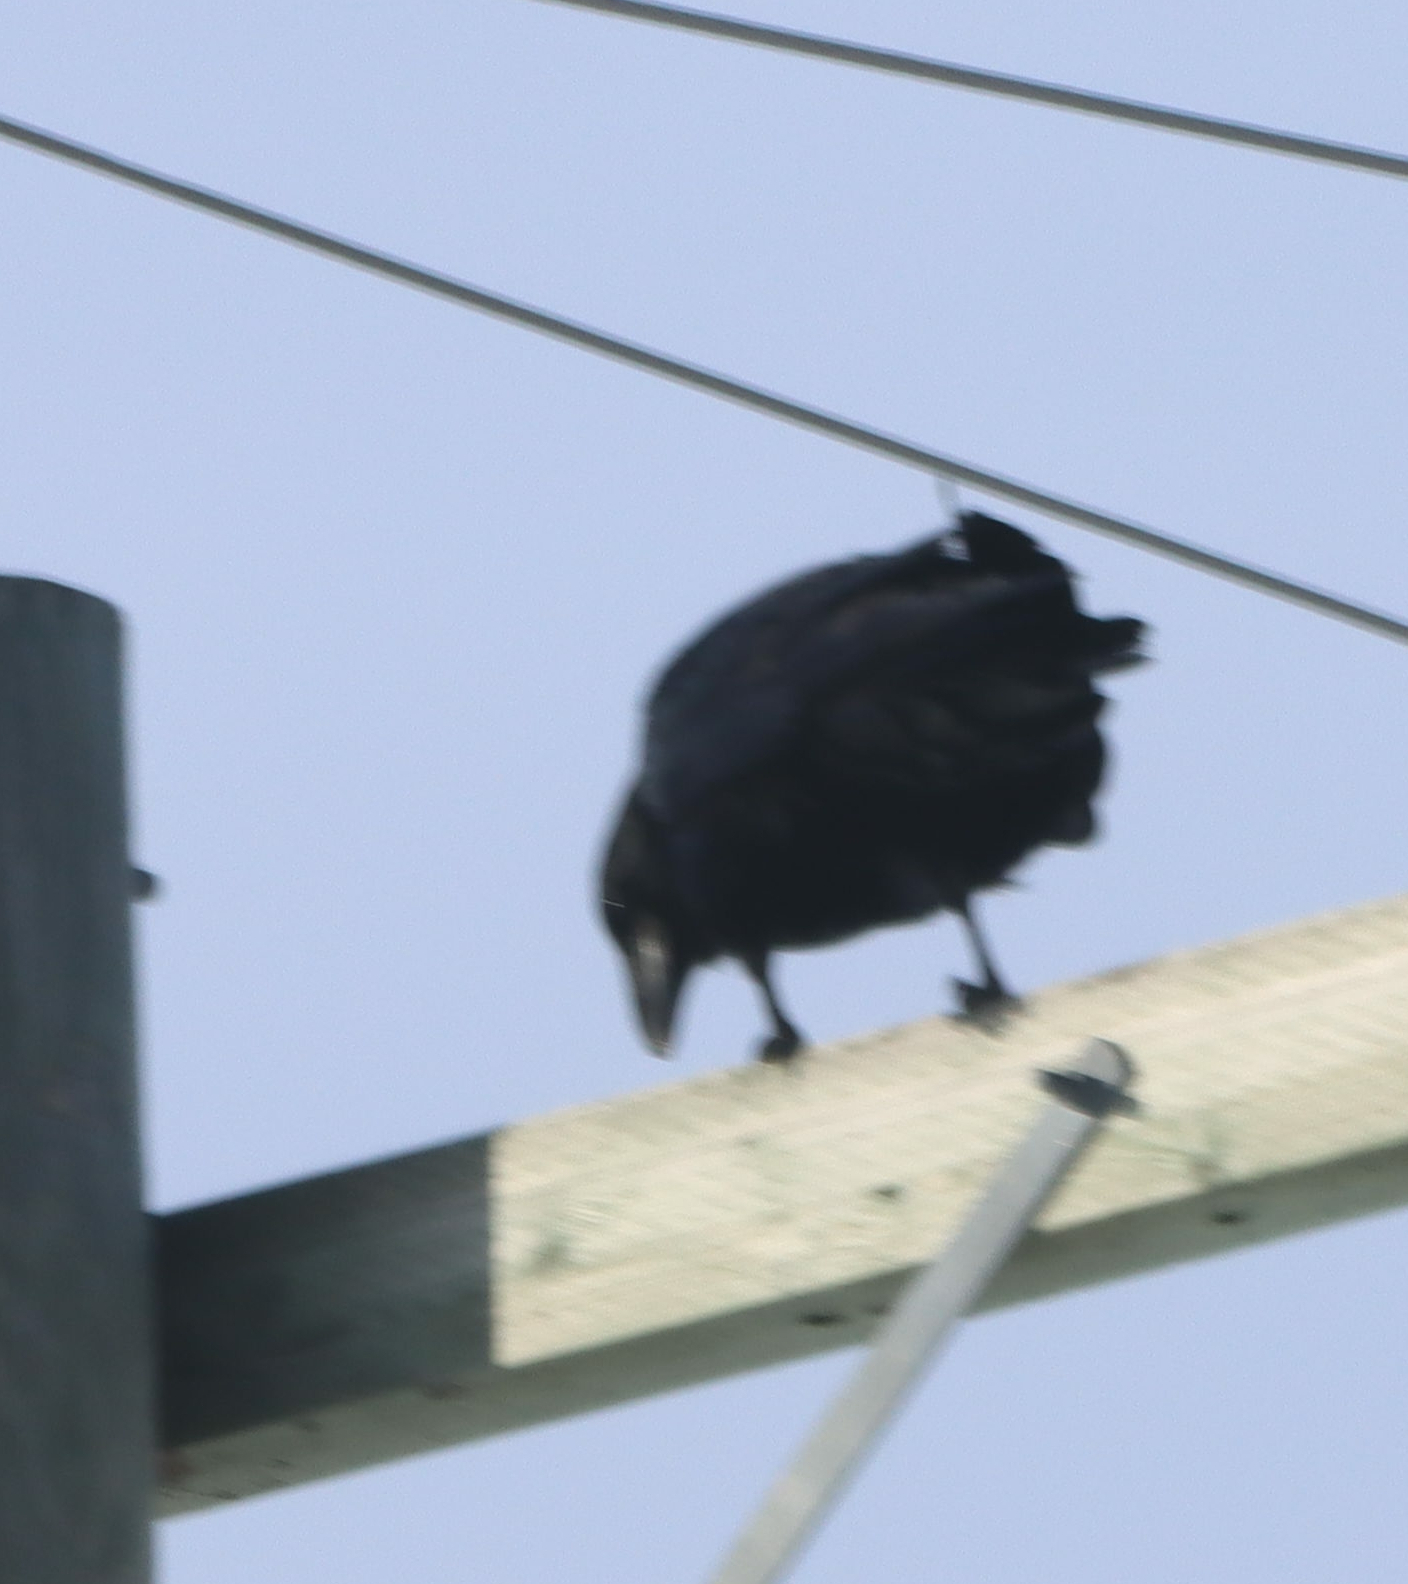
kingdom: Animalia
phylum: Chordata
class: Aves
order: Passeriformes
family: Corvidae
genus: Corvus
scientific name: Corvus corax
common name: Common raven
